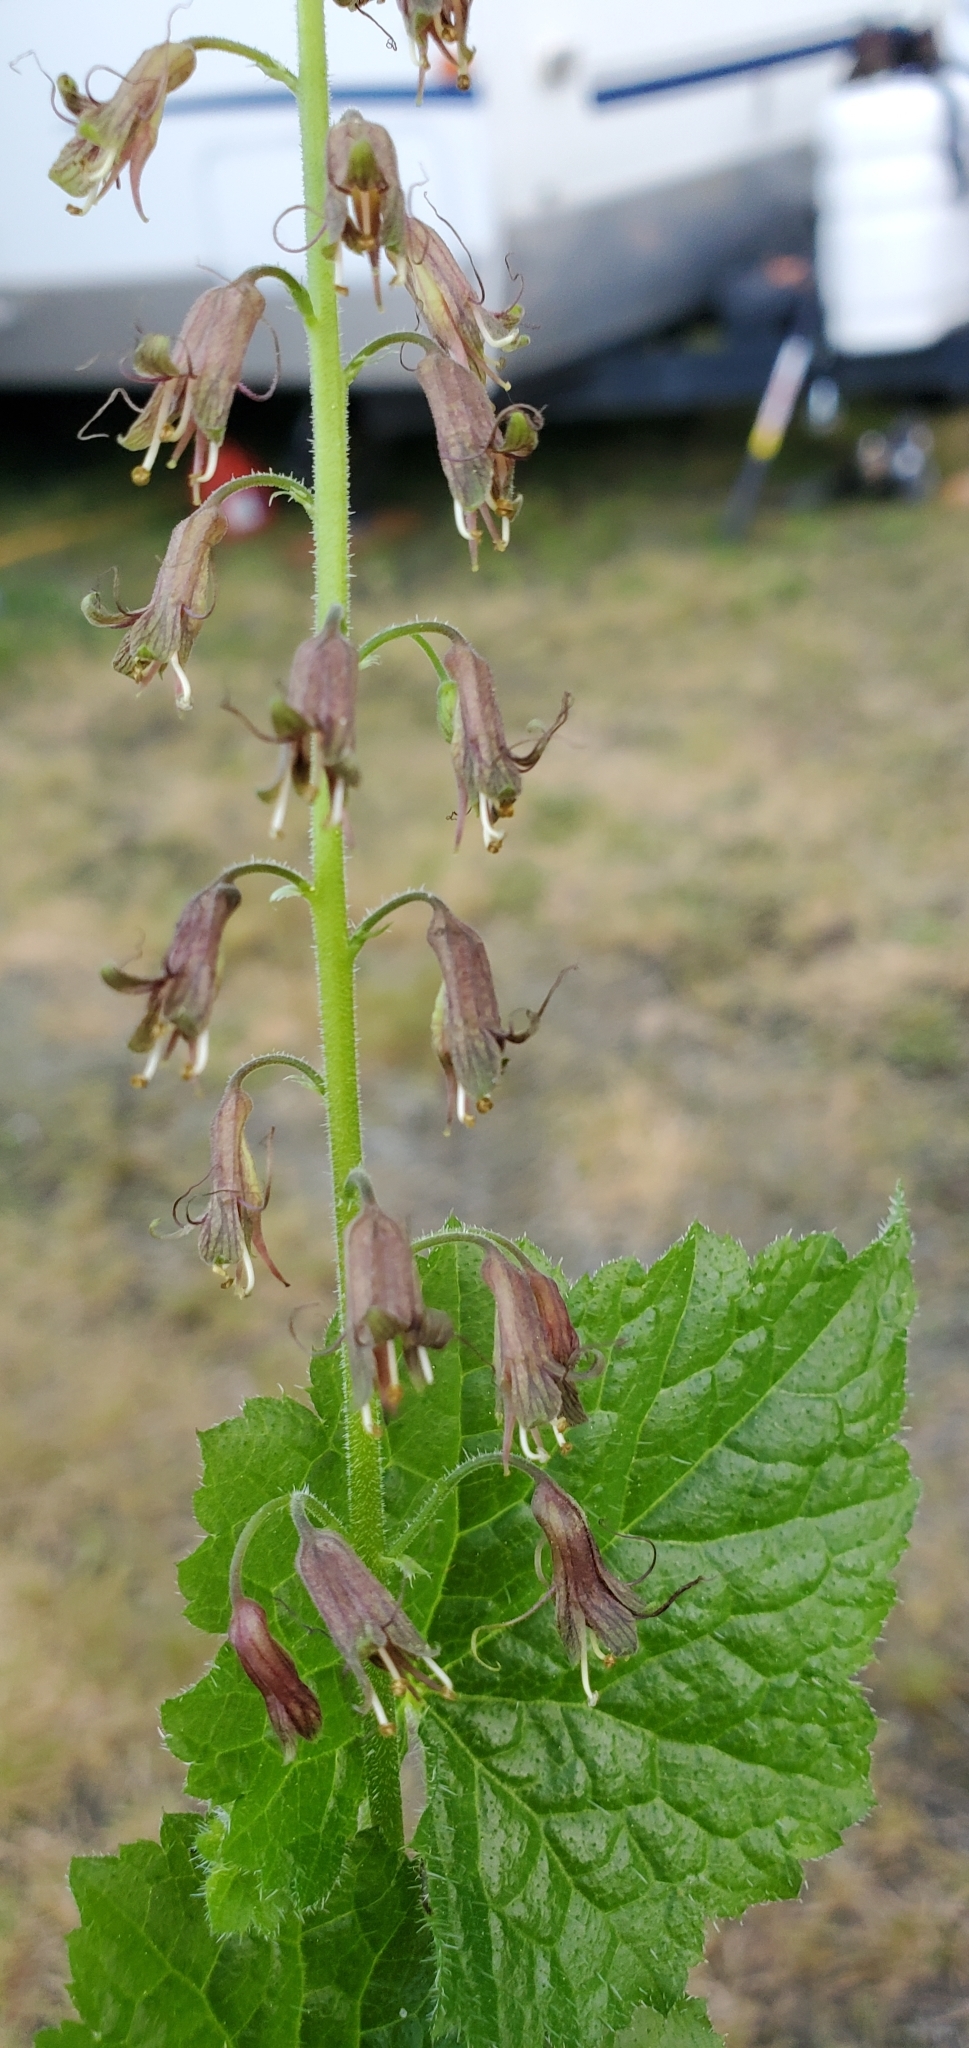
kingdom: Plantae
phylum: Tracheophyta
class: Magnoliopsida
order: Saxifragales
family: Saxifragaceae
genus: Tolmiea
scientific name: Tolmiea menziesii
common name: Pick-a-back-plant
